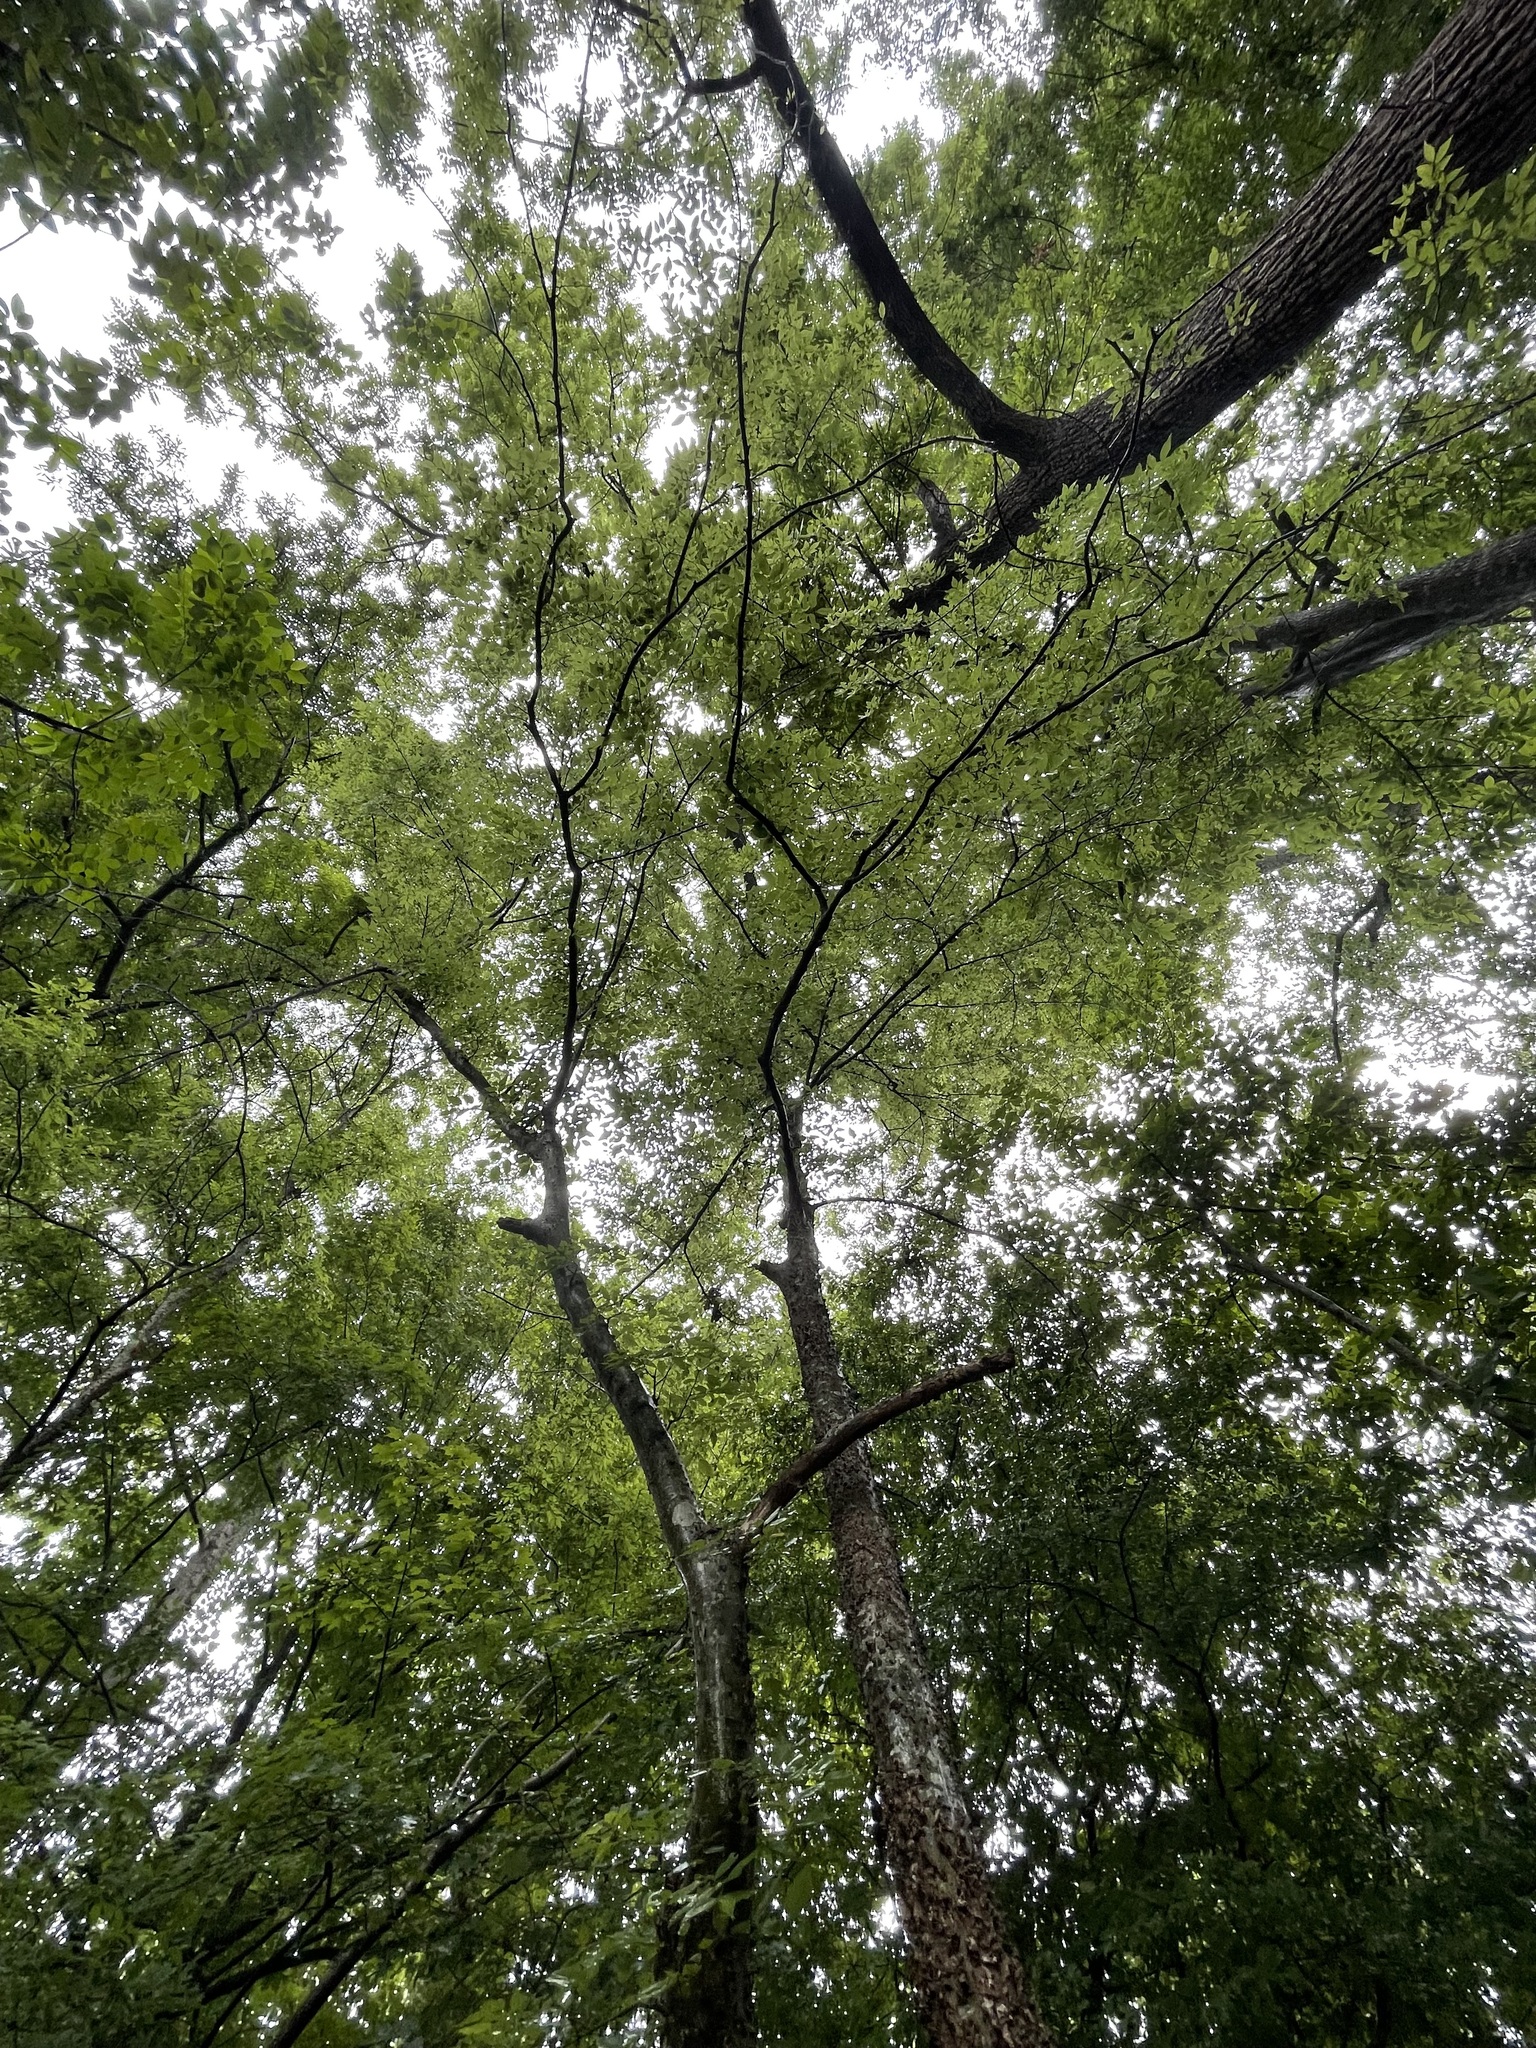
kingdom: Plantae
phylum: Tracheophyta
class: Magnoliopsida
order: Rosales
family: Cannabaceae
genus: Celtis
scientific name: Celtis laevigata
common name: Sugarberry
